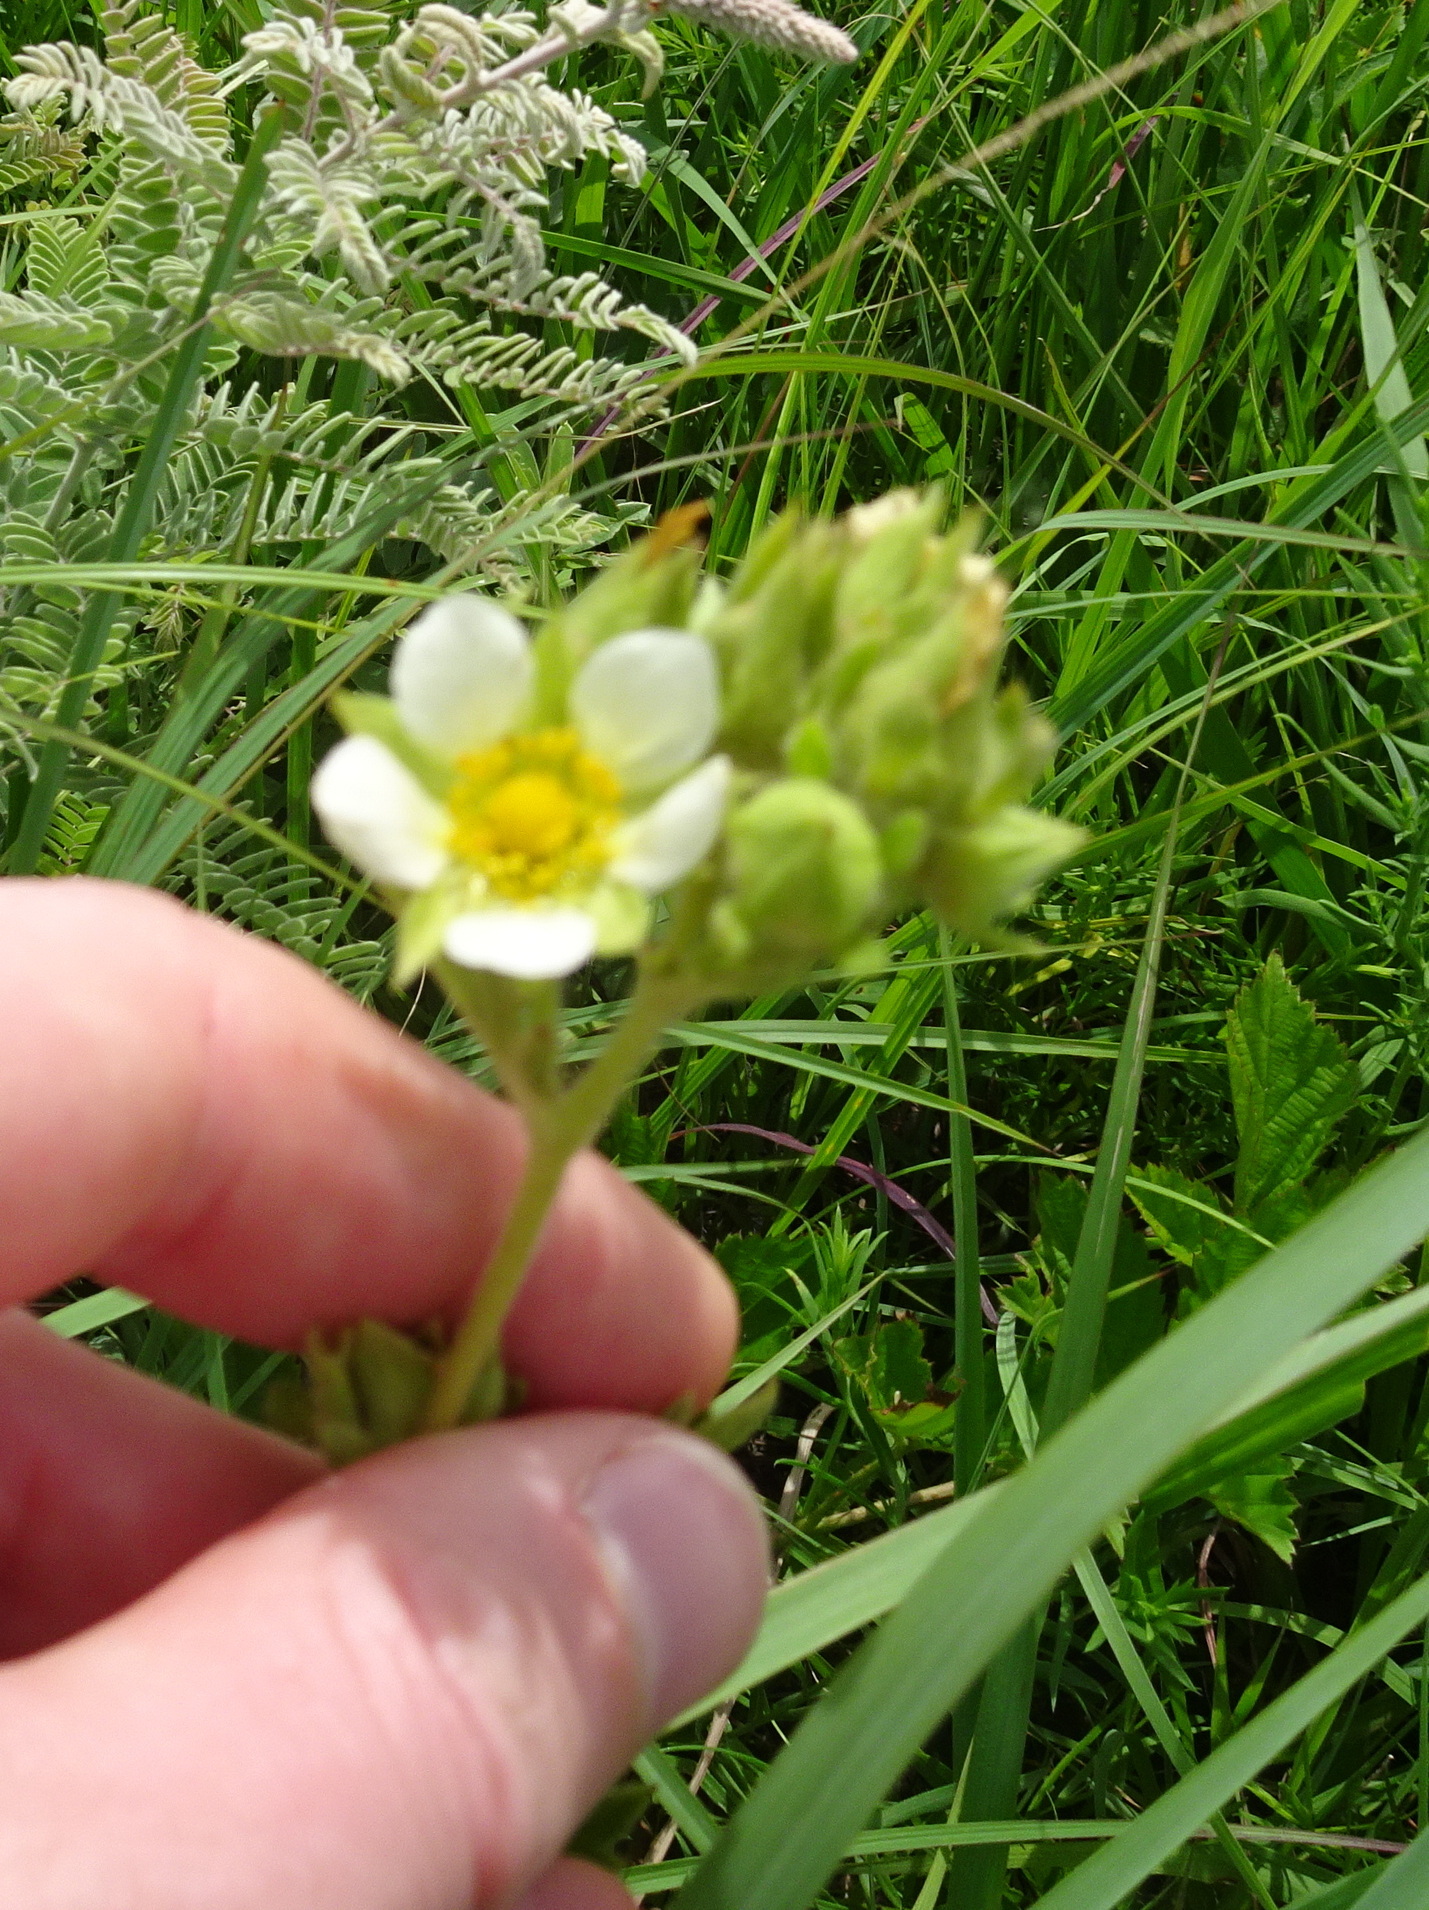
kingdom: Plantae
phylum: Tracheophyta
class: Magnoliopsida
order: Rosales
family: Rosaceae
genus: Drymocallis
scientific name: Drymocallis arguta
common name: Tall cinquefoil
